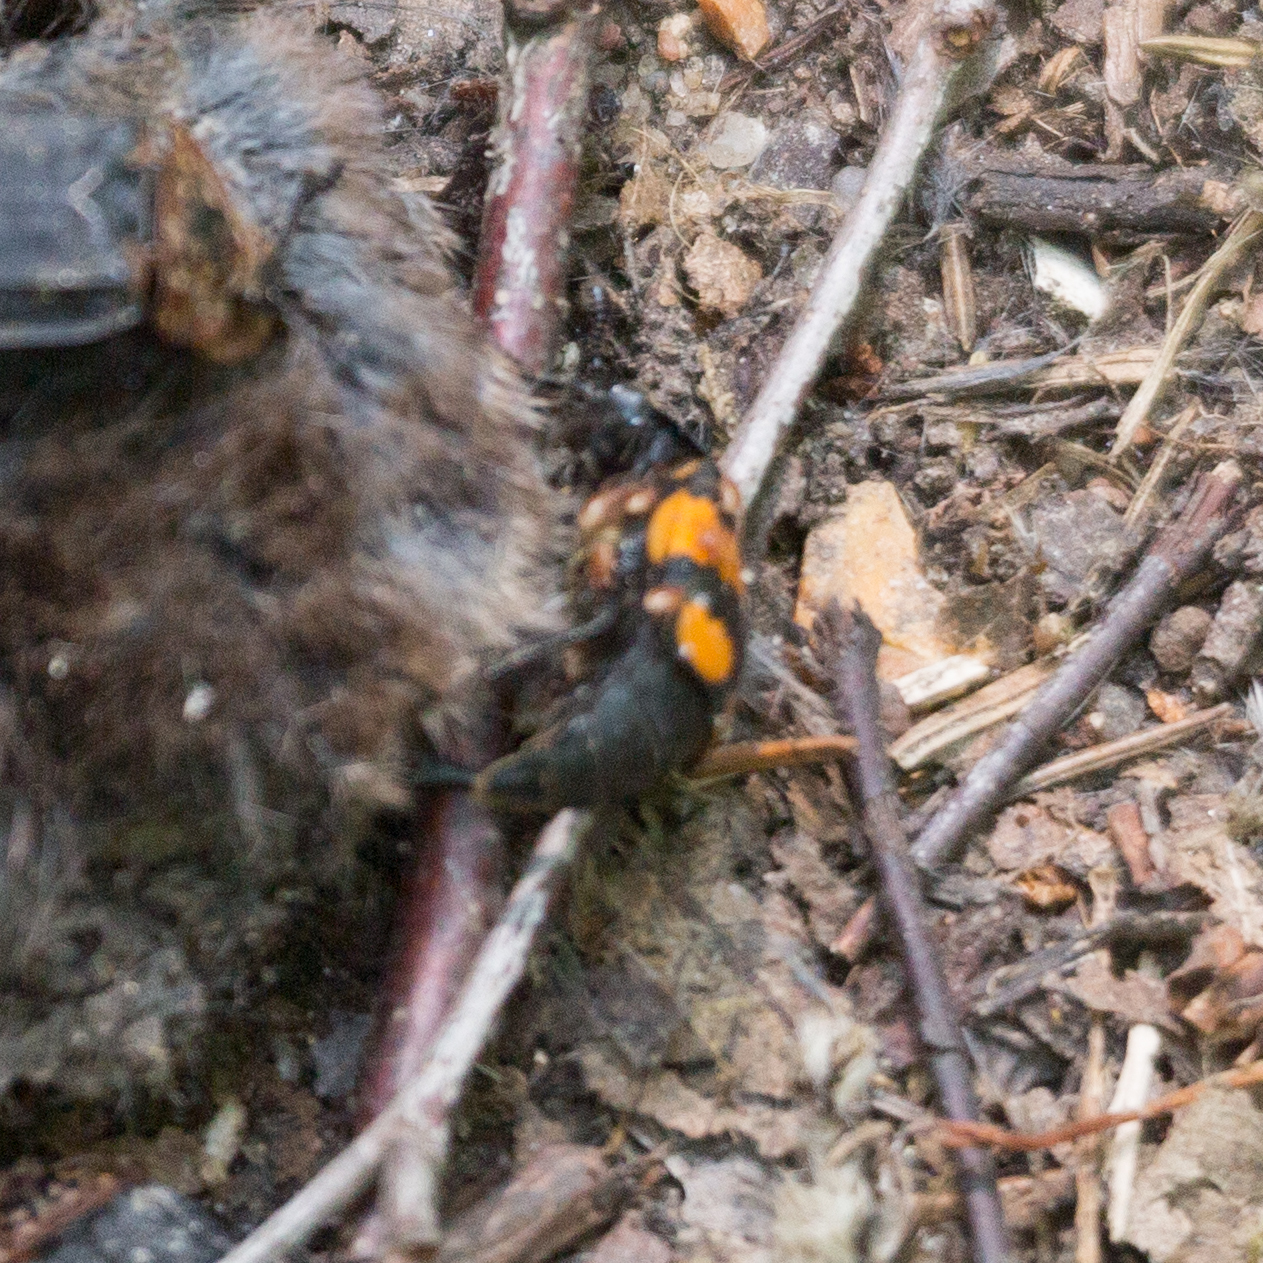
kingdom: Animalia
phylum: Arthropoda
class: Insecta
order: Coleoptera
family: Staphylinidae
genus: Nicrophorus
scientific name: Nicrophorus vespilloides
